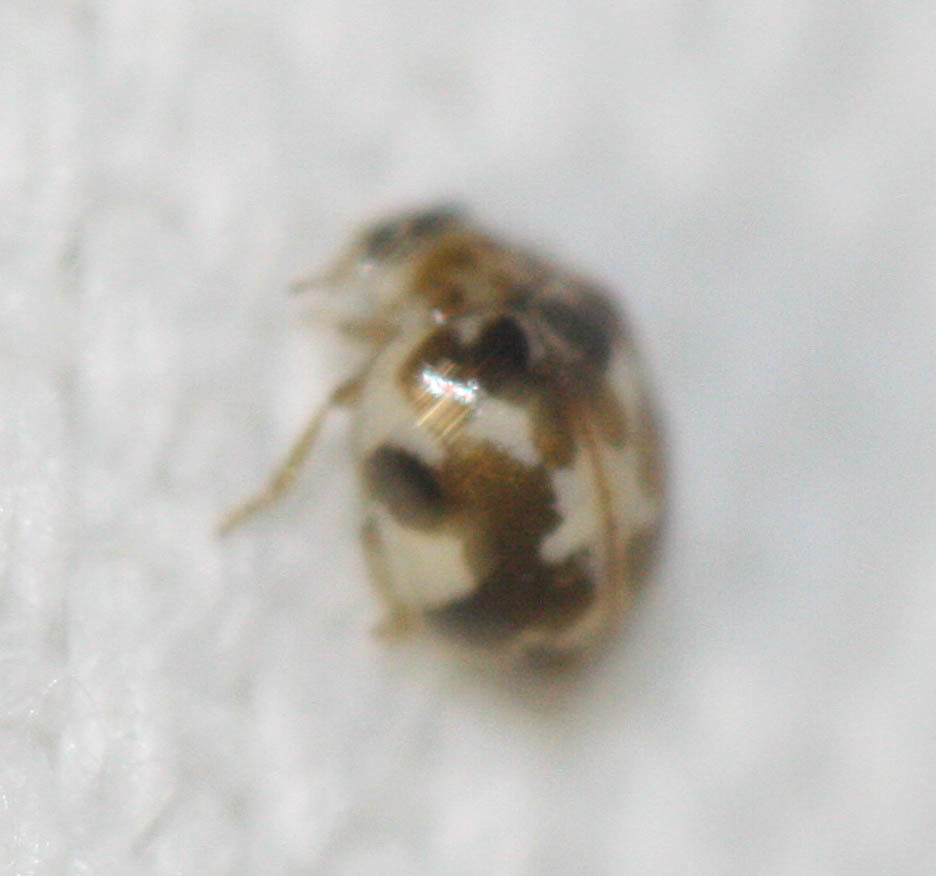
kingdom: Animalia
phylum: Arthropoda
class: Insecta
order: Coleoptera
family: Coccinellidae
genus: Psyllobora
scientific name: Psyllobora vigintimaculata
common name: Ladybird beetle
